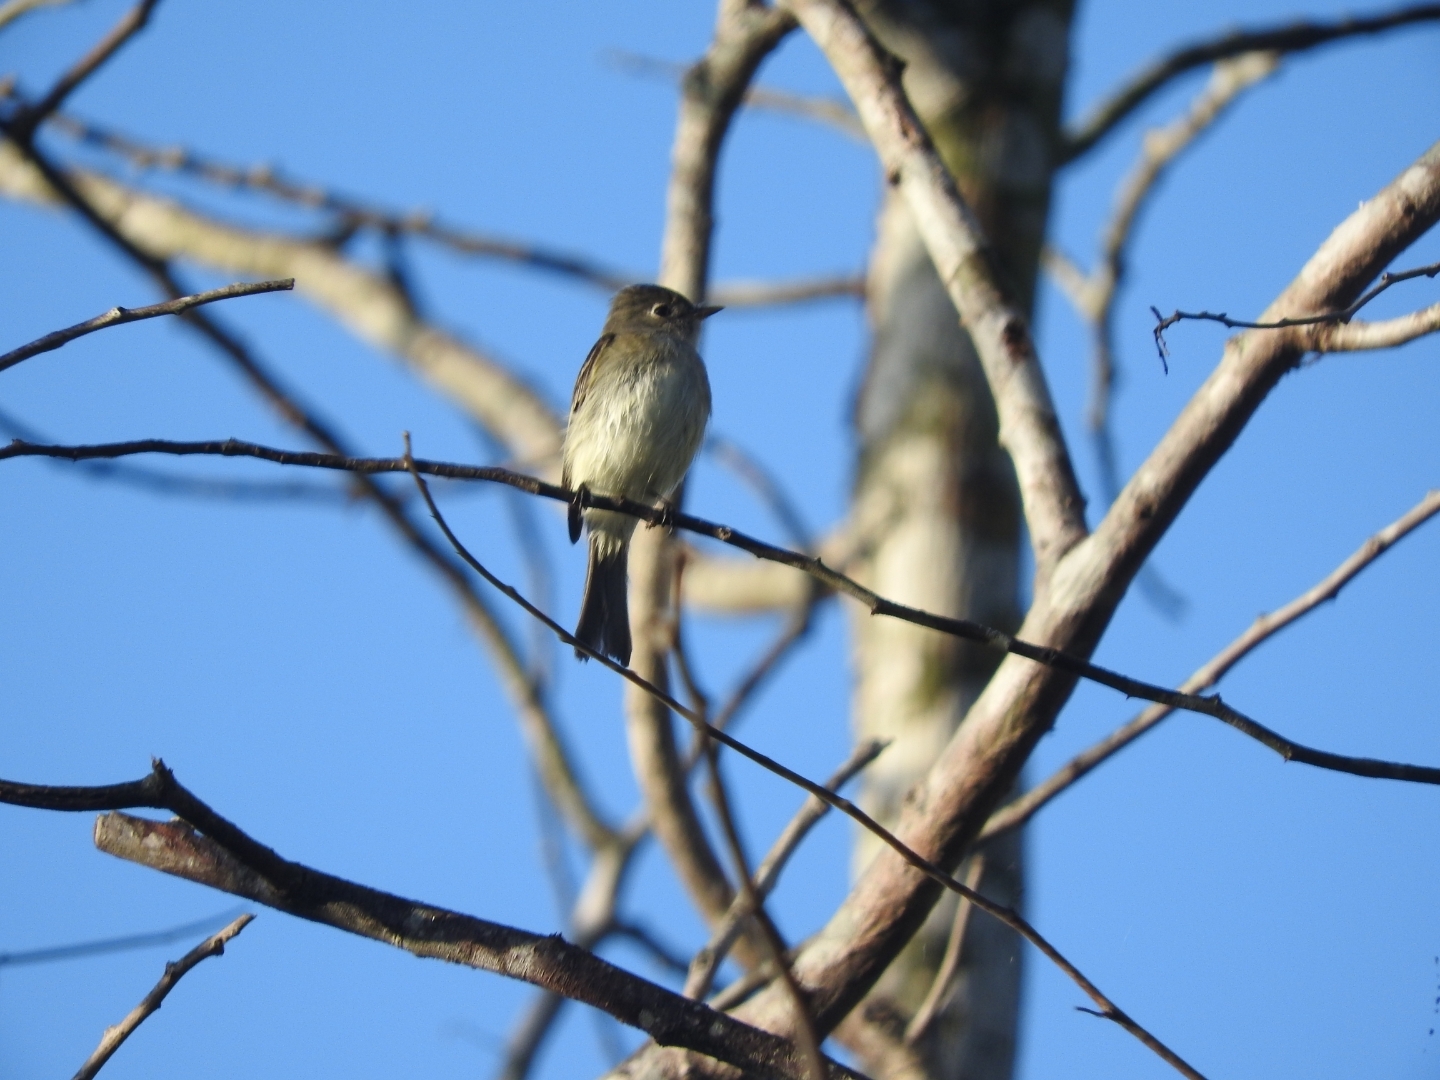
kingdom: Animalia
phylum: Chordata
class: Aves
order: Passeriformes
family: Tyrannidae
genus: Empidonax
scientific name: Empidonax minimus
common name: Least flycatcher
